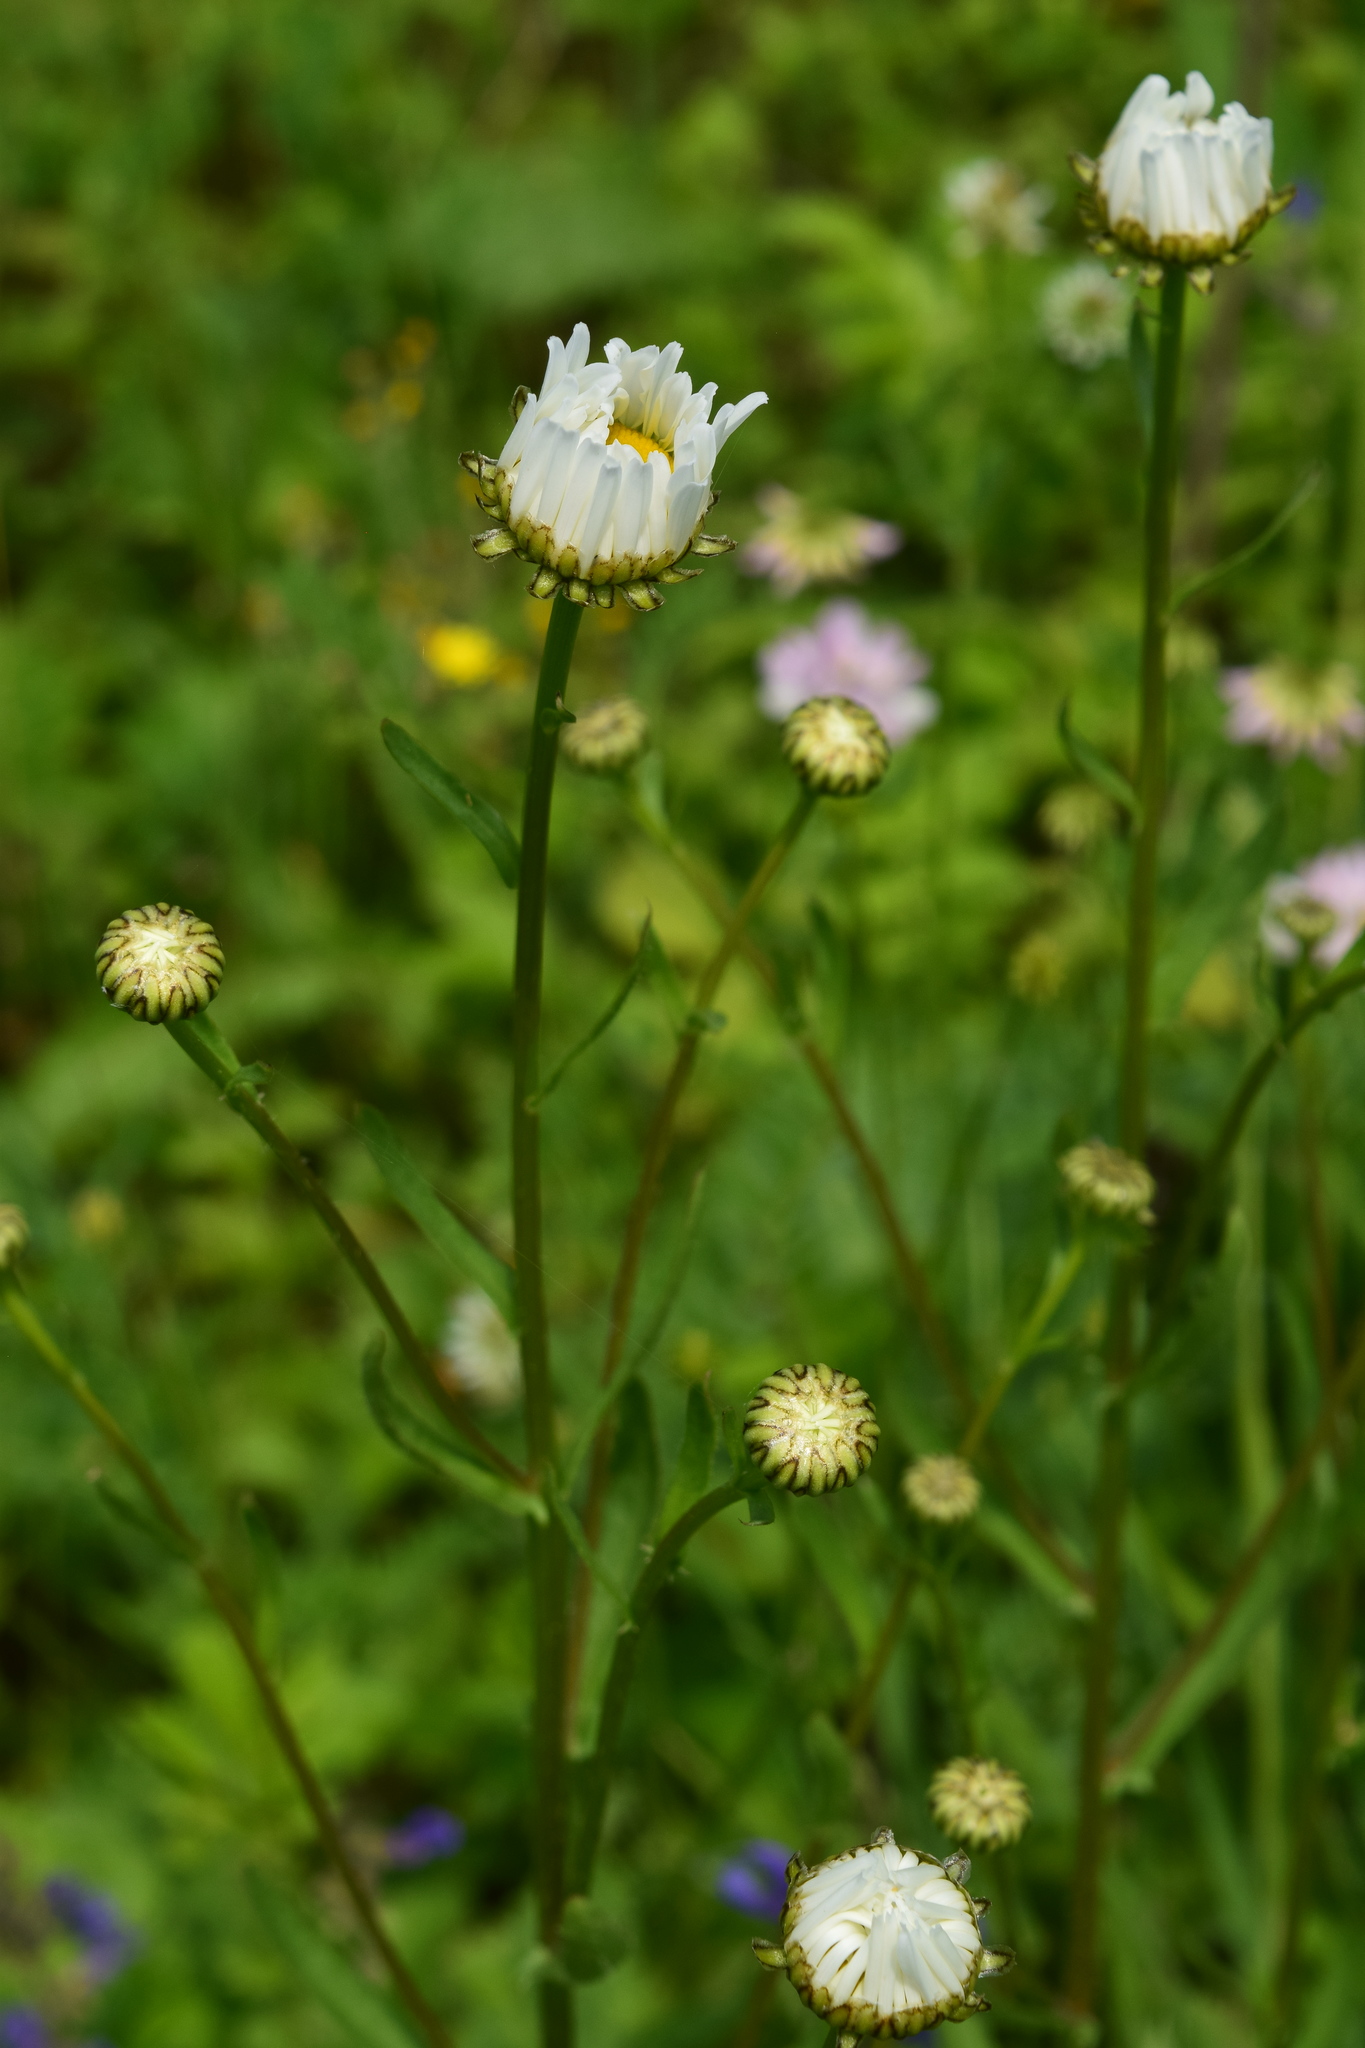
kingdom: Plantae
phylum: Tracheophyta
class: Magnoliopsida
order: Asterales
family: Asteraceae
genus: Leucanthemum
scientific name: Leucanthemum vulgare
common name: Oxeye daisy
